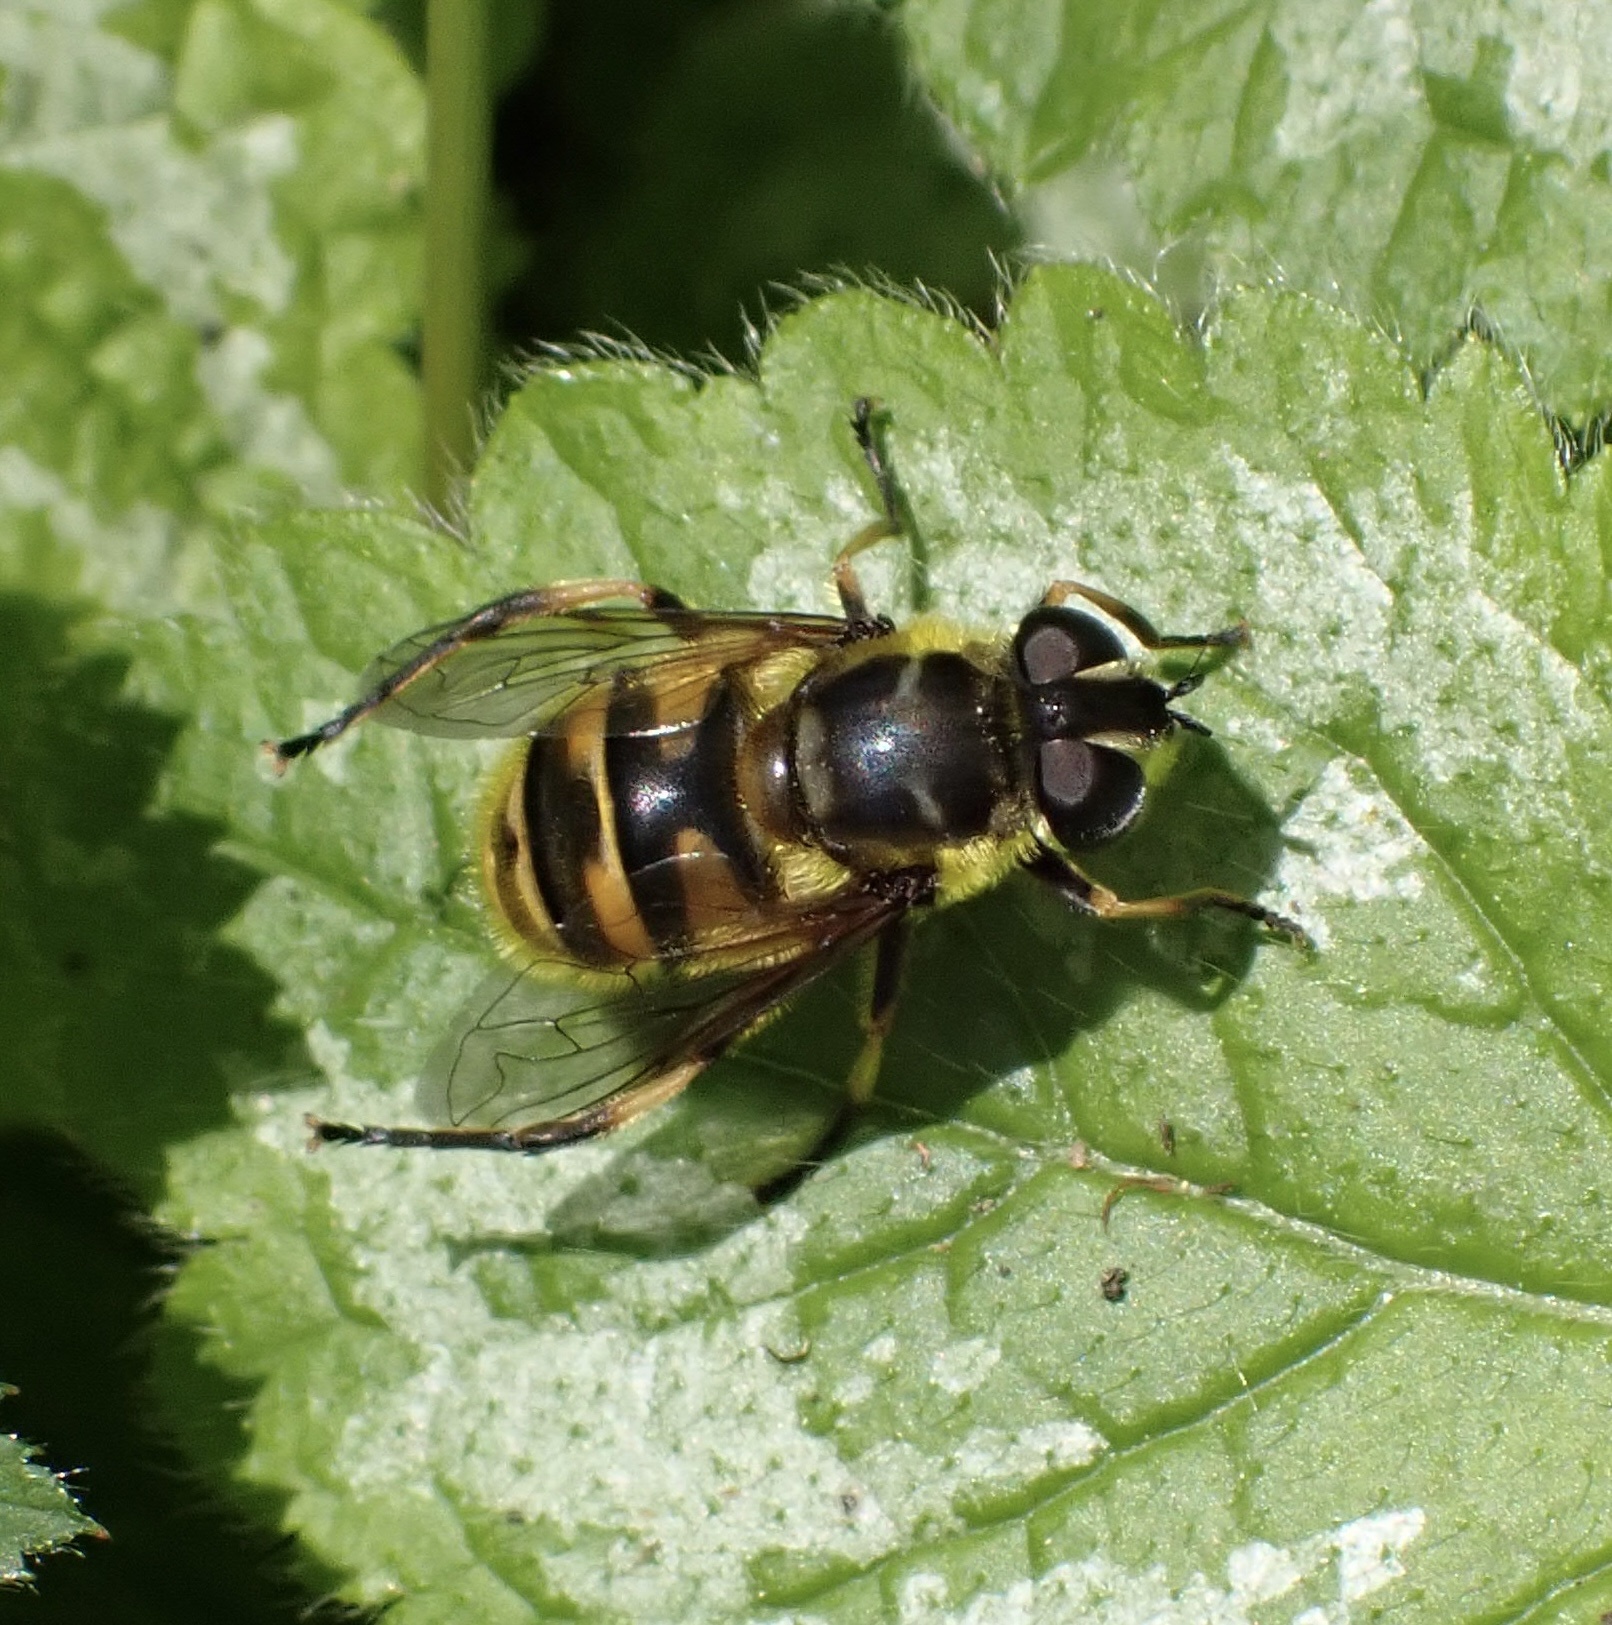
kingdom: Animalia
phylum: Arthropoda
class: Insecta
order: Diptera
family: Syrphidae
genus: Myathropa
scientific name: Myathropa florea
